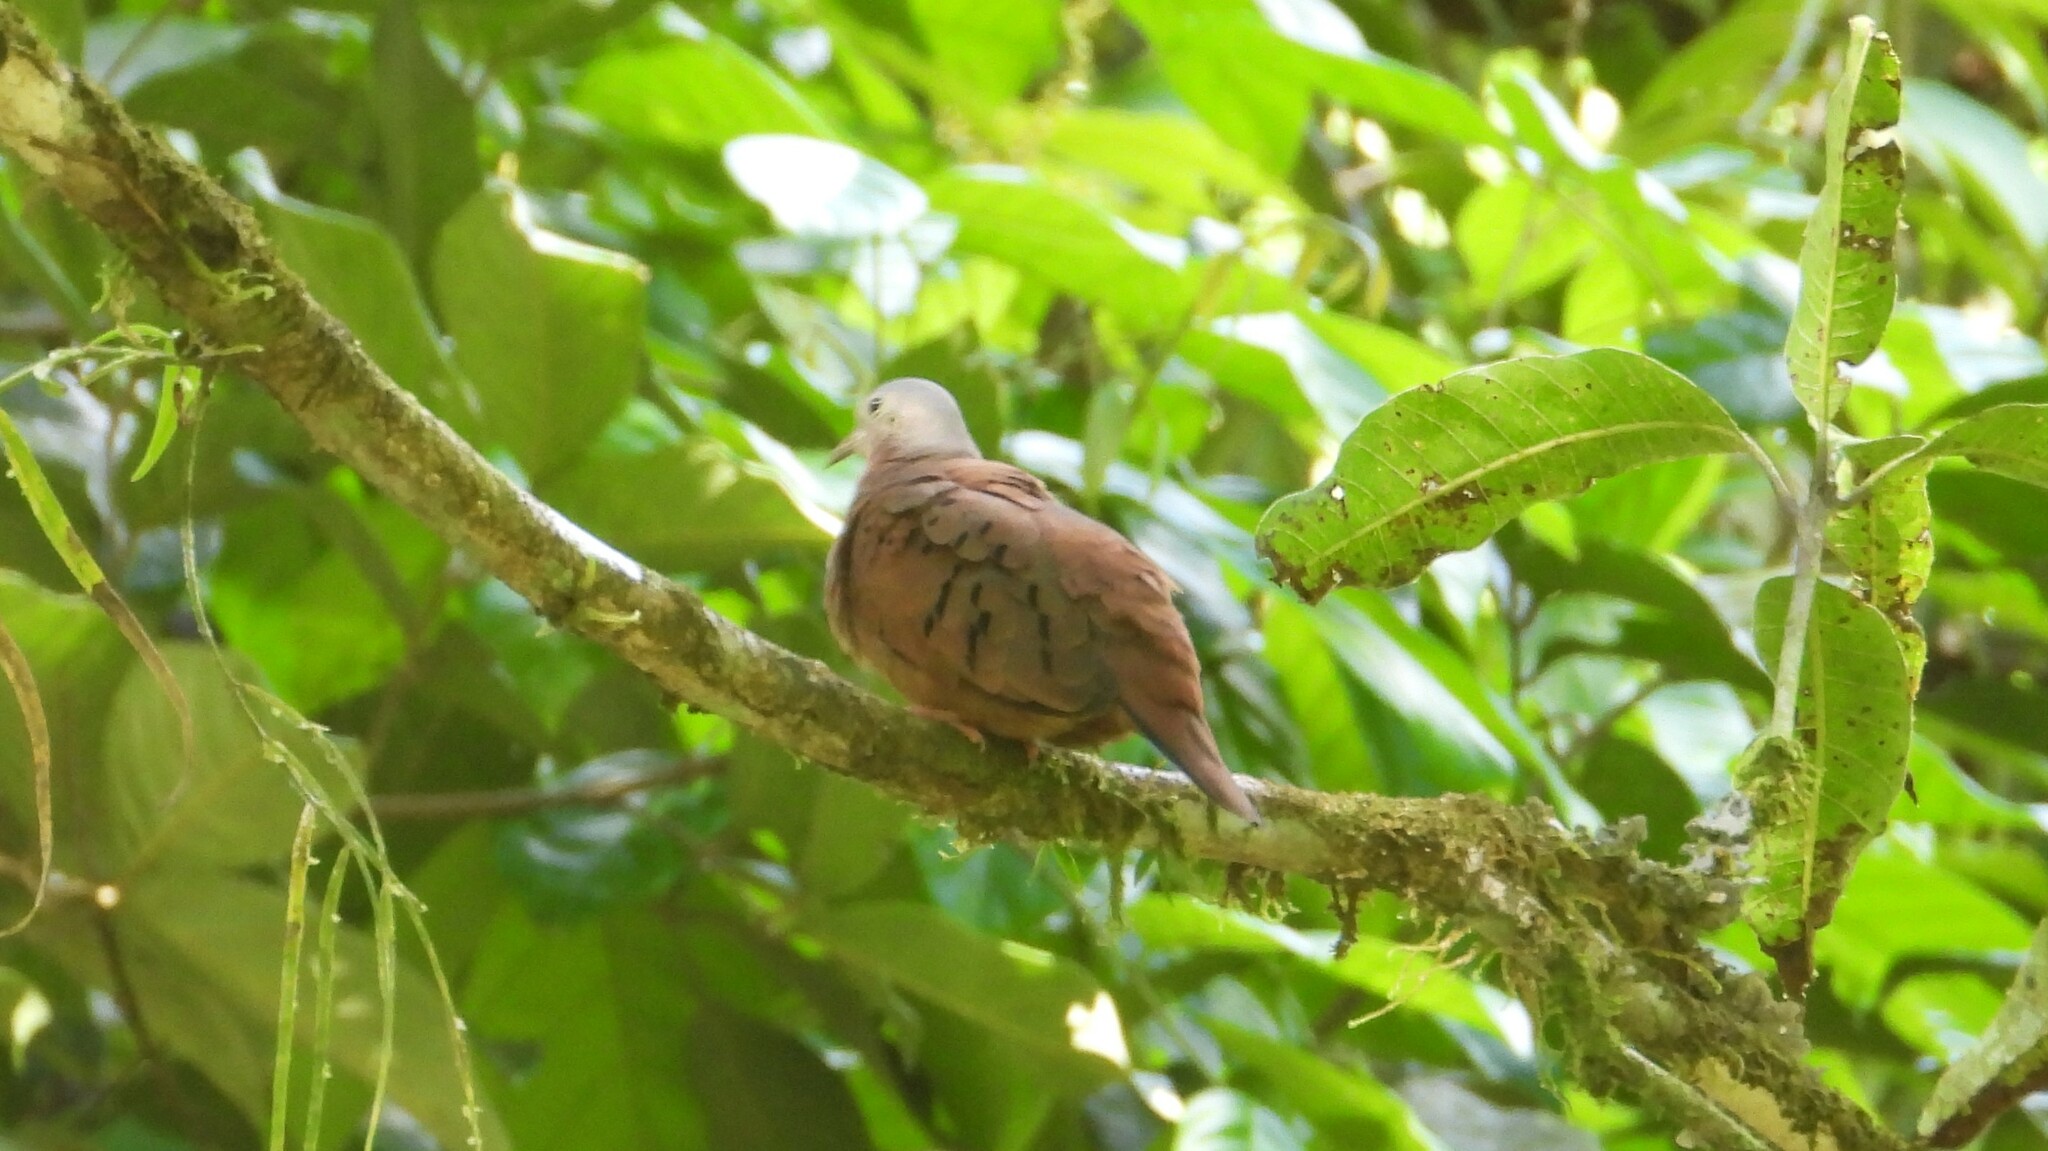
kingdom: Animalia
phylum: Chordata
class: Aves
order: Columbiformes
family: Columbidae
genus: Columbina
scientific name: Columbina talpacoti
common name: Ruddy ground dove
